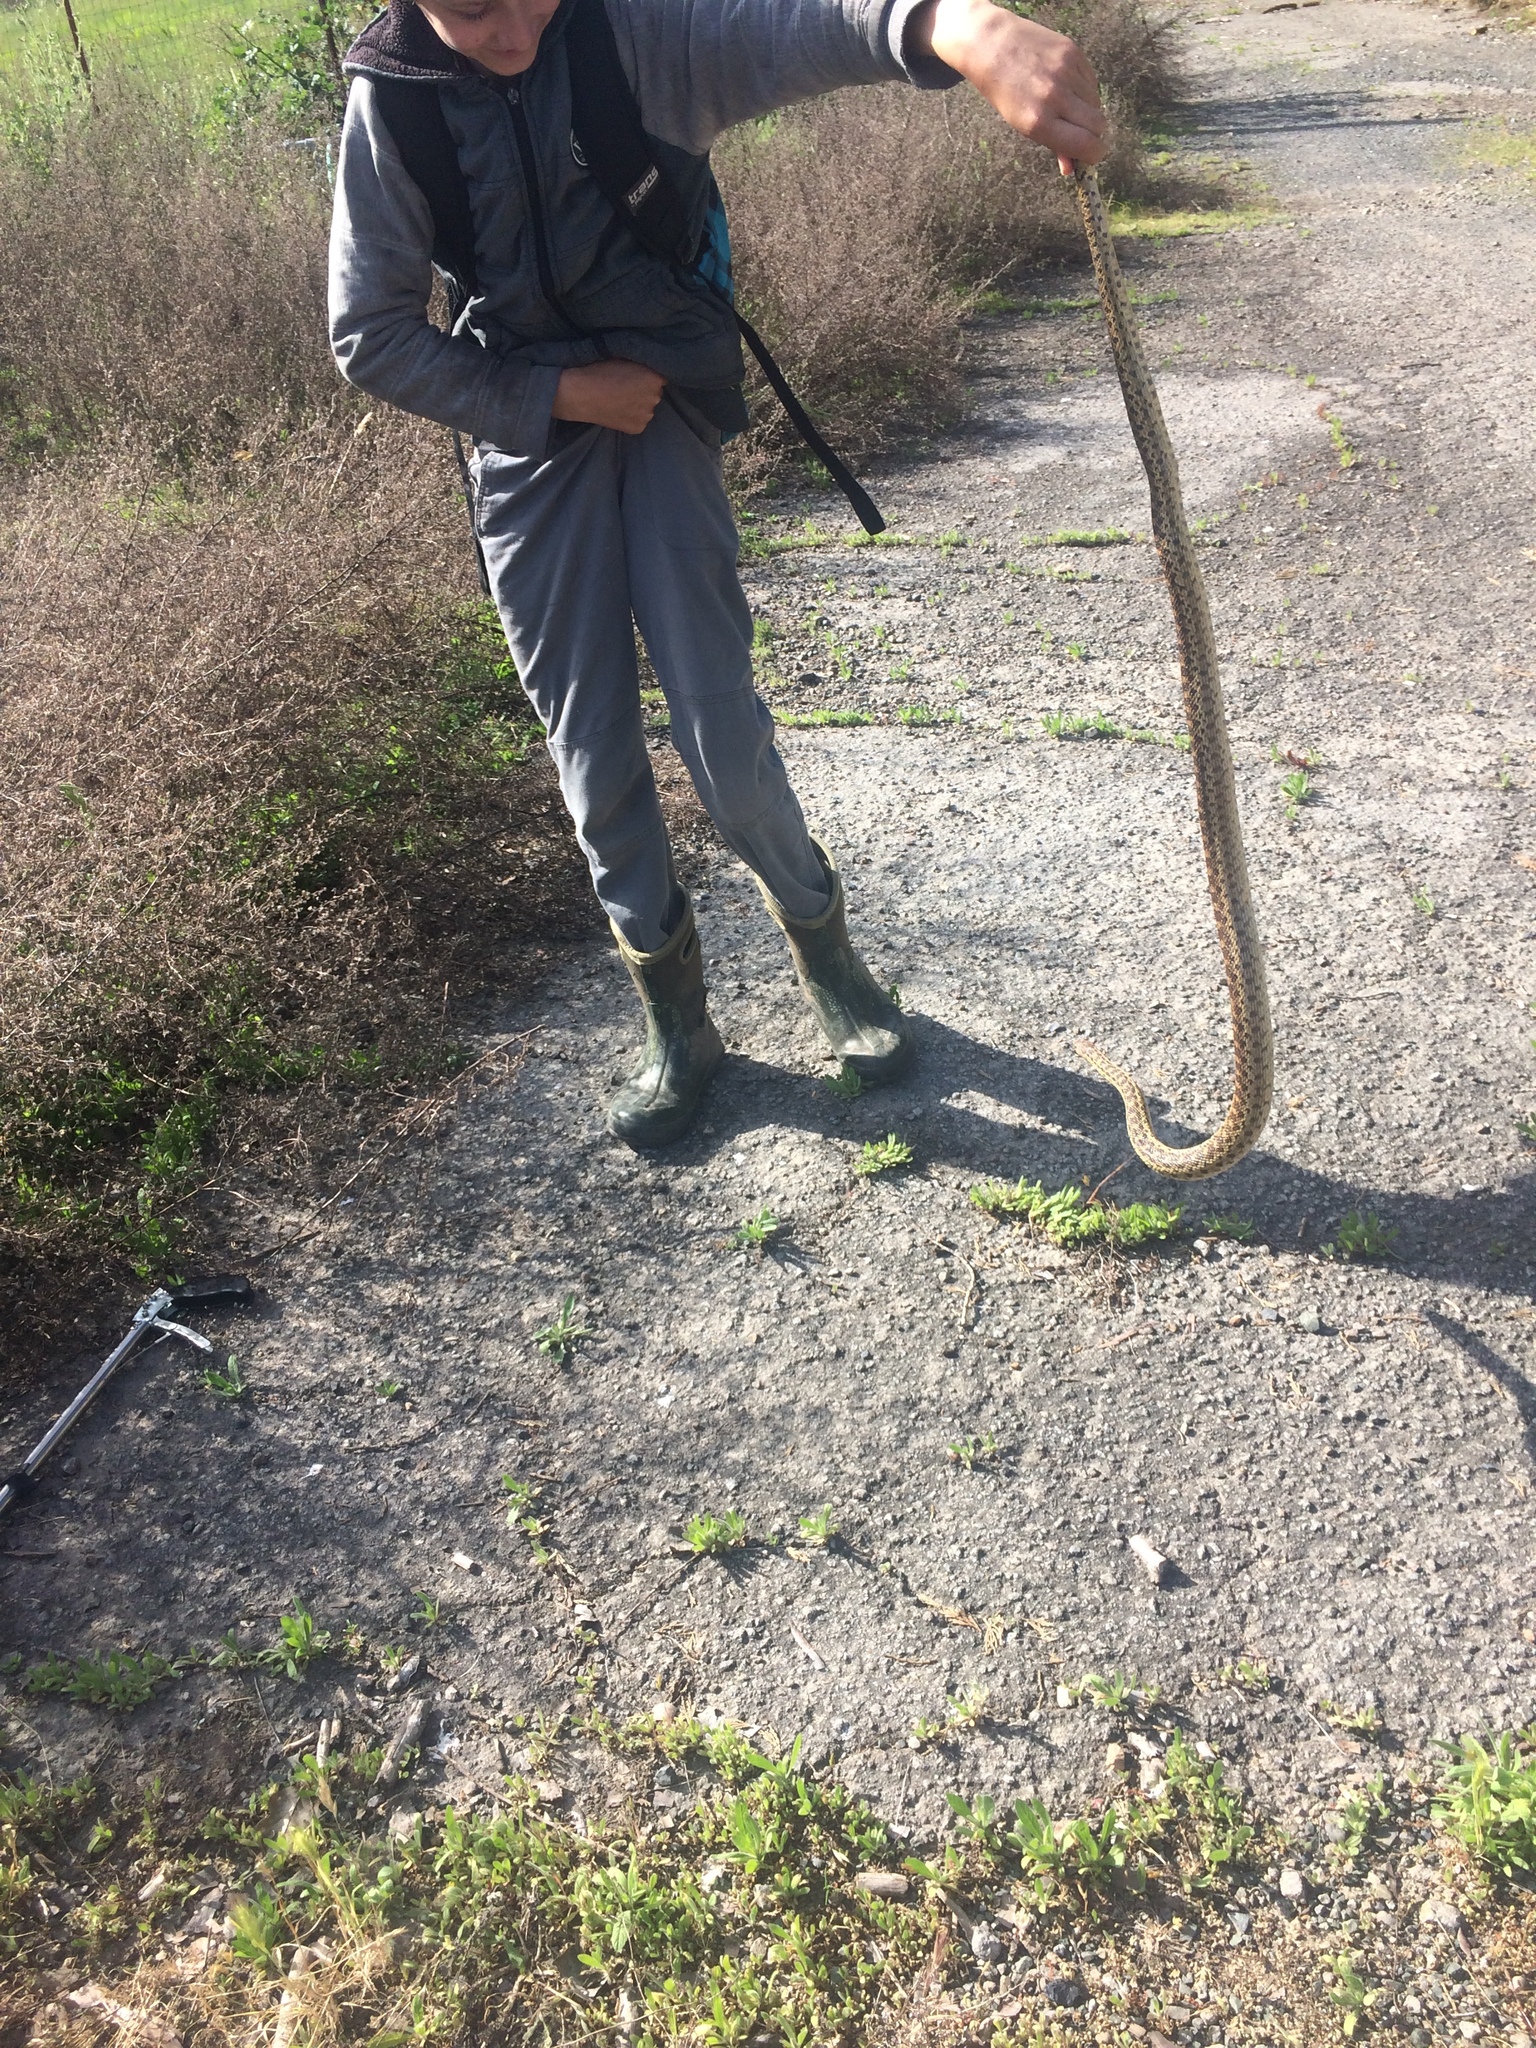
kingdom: Animalia
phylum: Chordata
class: Squamata
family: Colubridae
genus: Pituophis
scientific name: Pituophis catenifer
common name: Gopher snake
